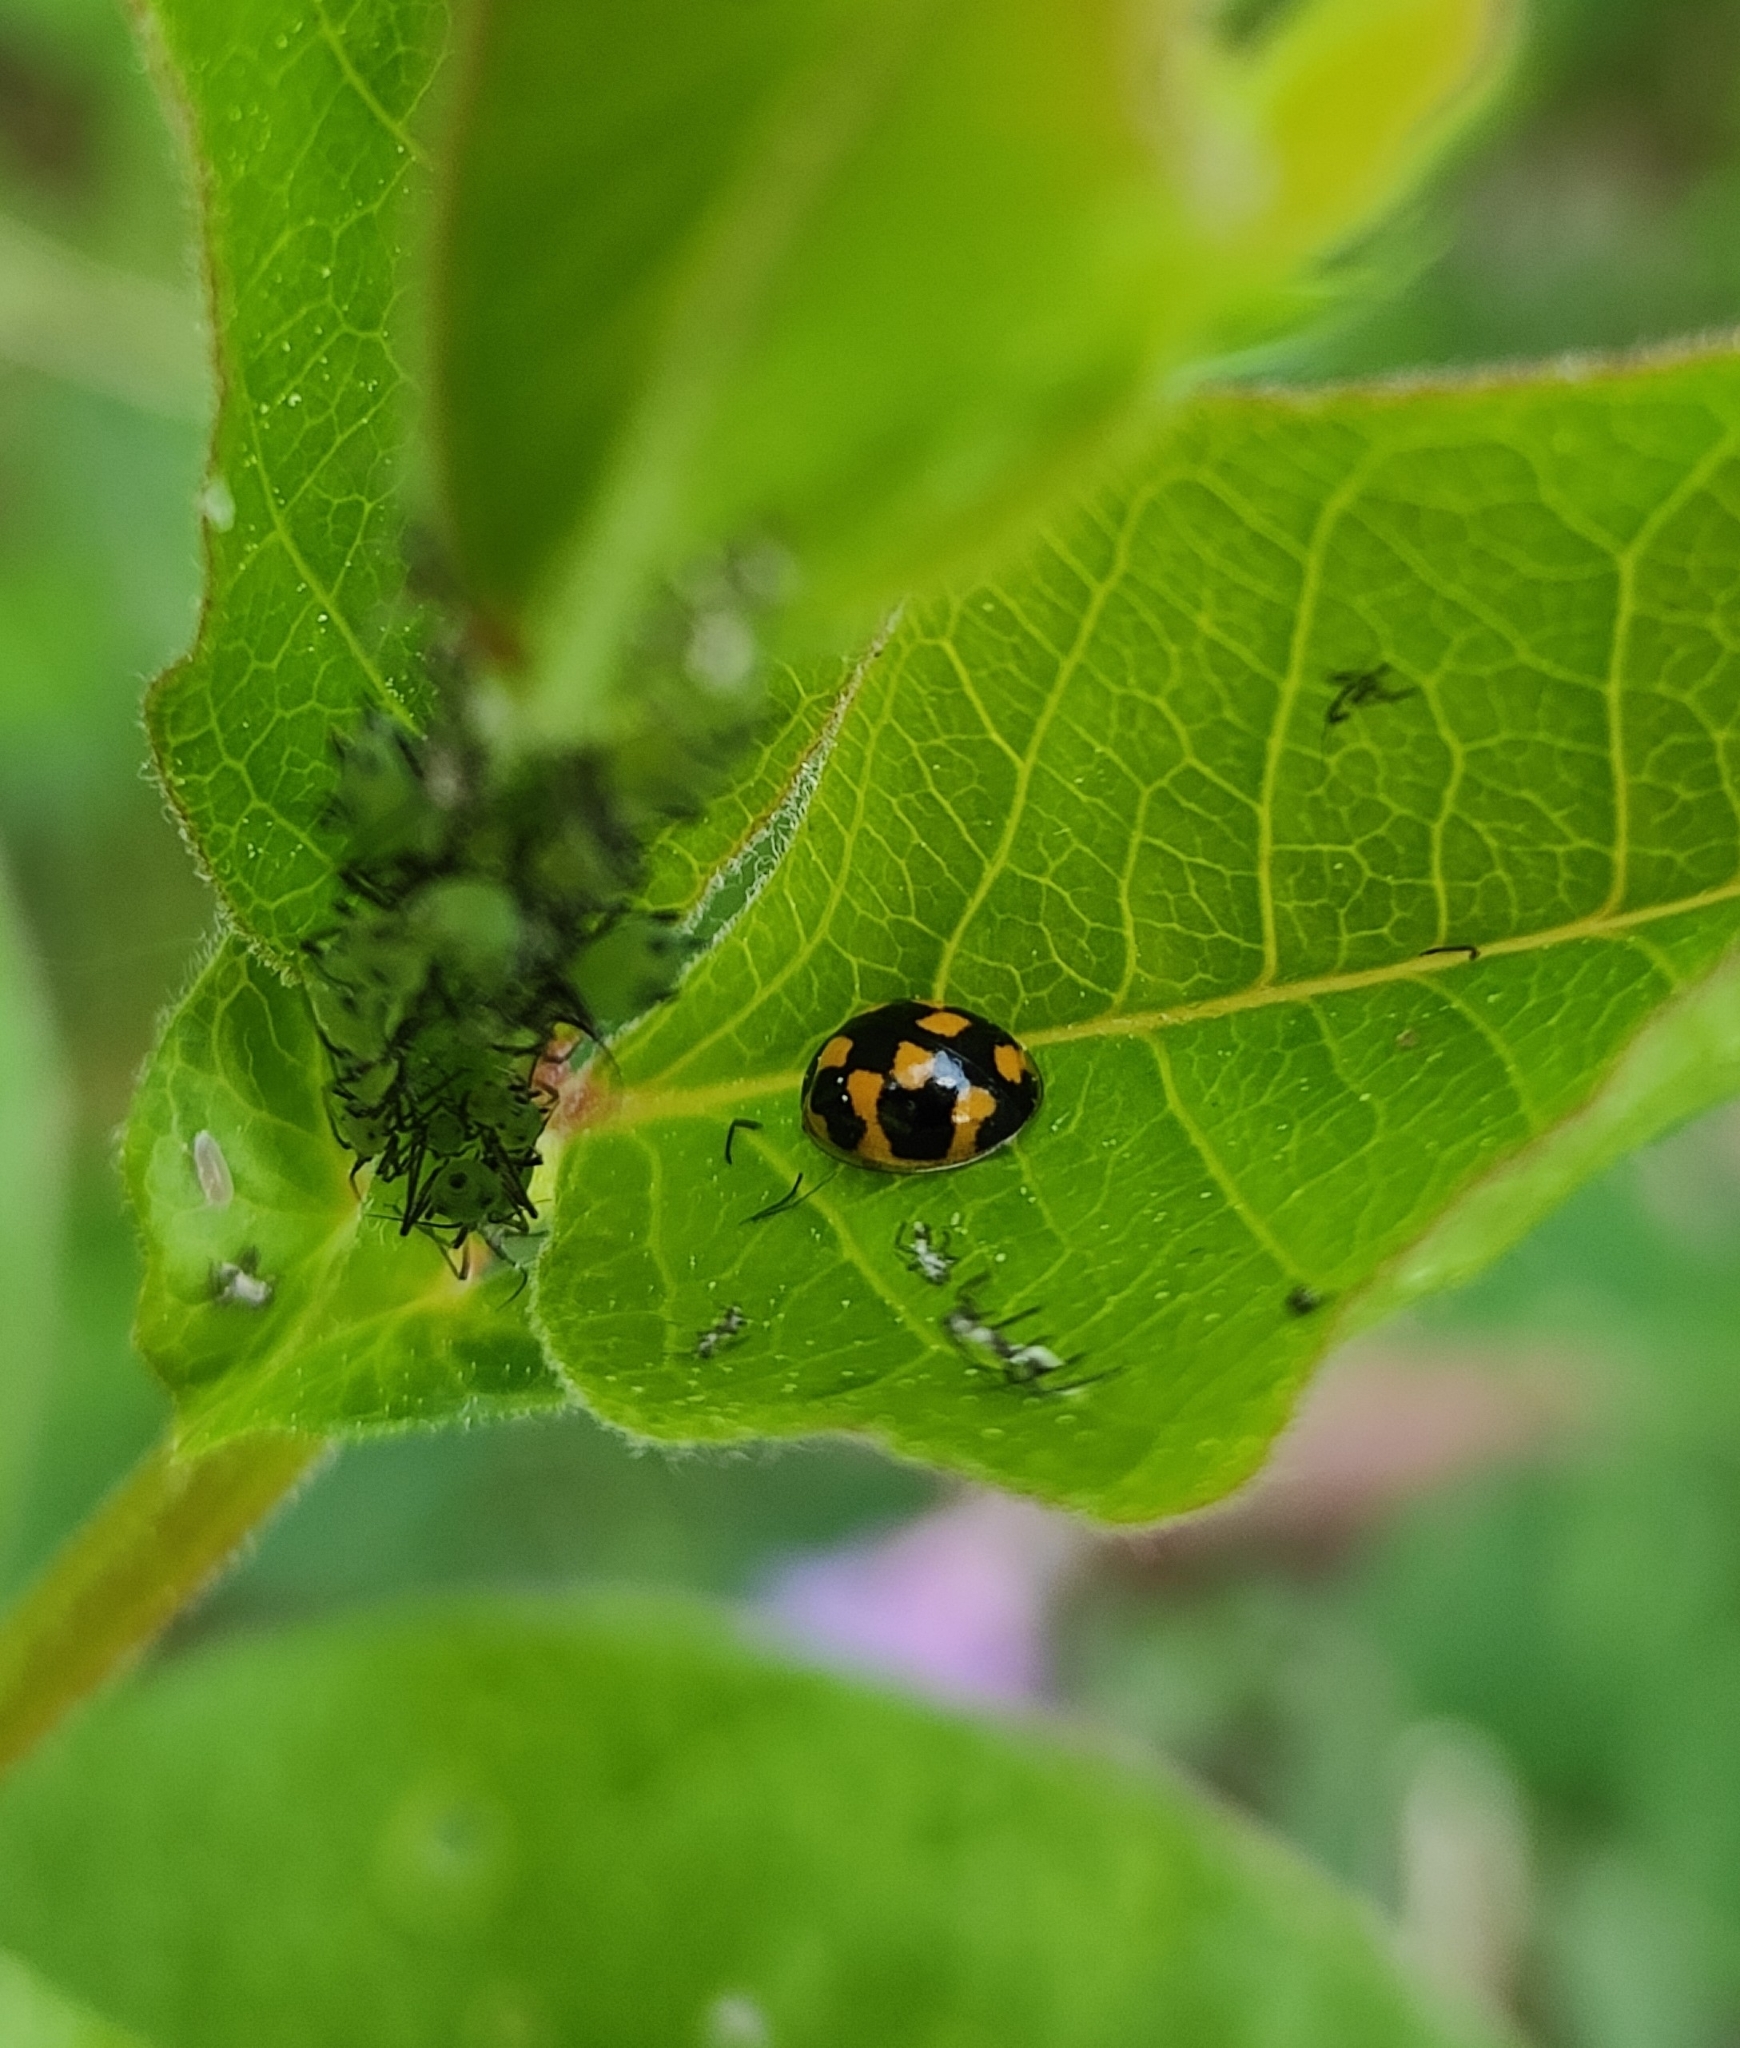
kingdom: Animalia
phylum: Arthropoda
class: Insecta
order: Coleoptera
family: Coccinellidae
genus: Propylaea
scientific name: Propylaea quatuordecimpunctata
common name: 14-spotted ladybird beetle
